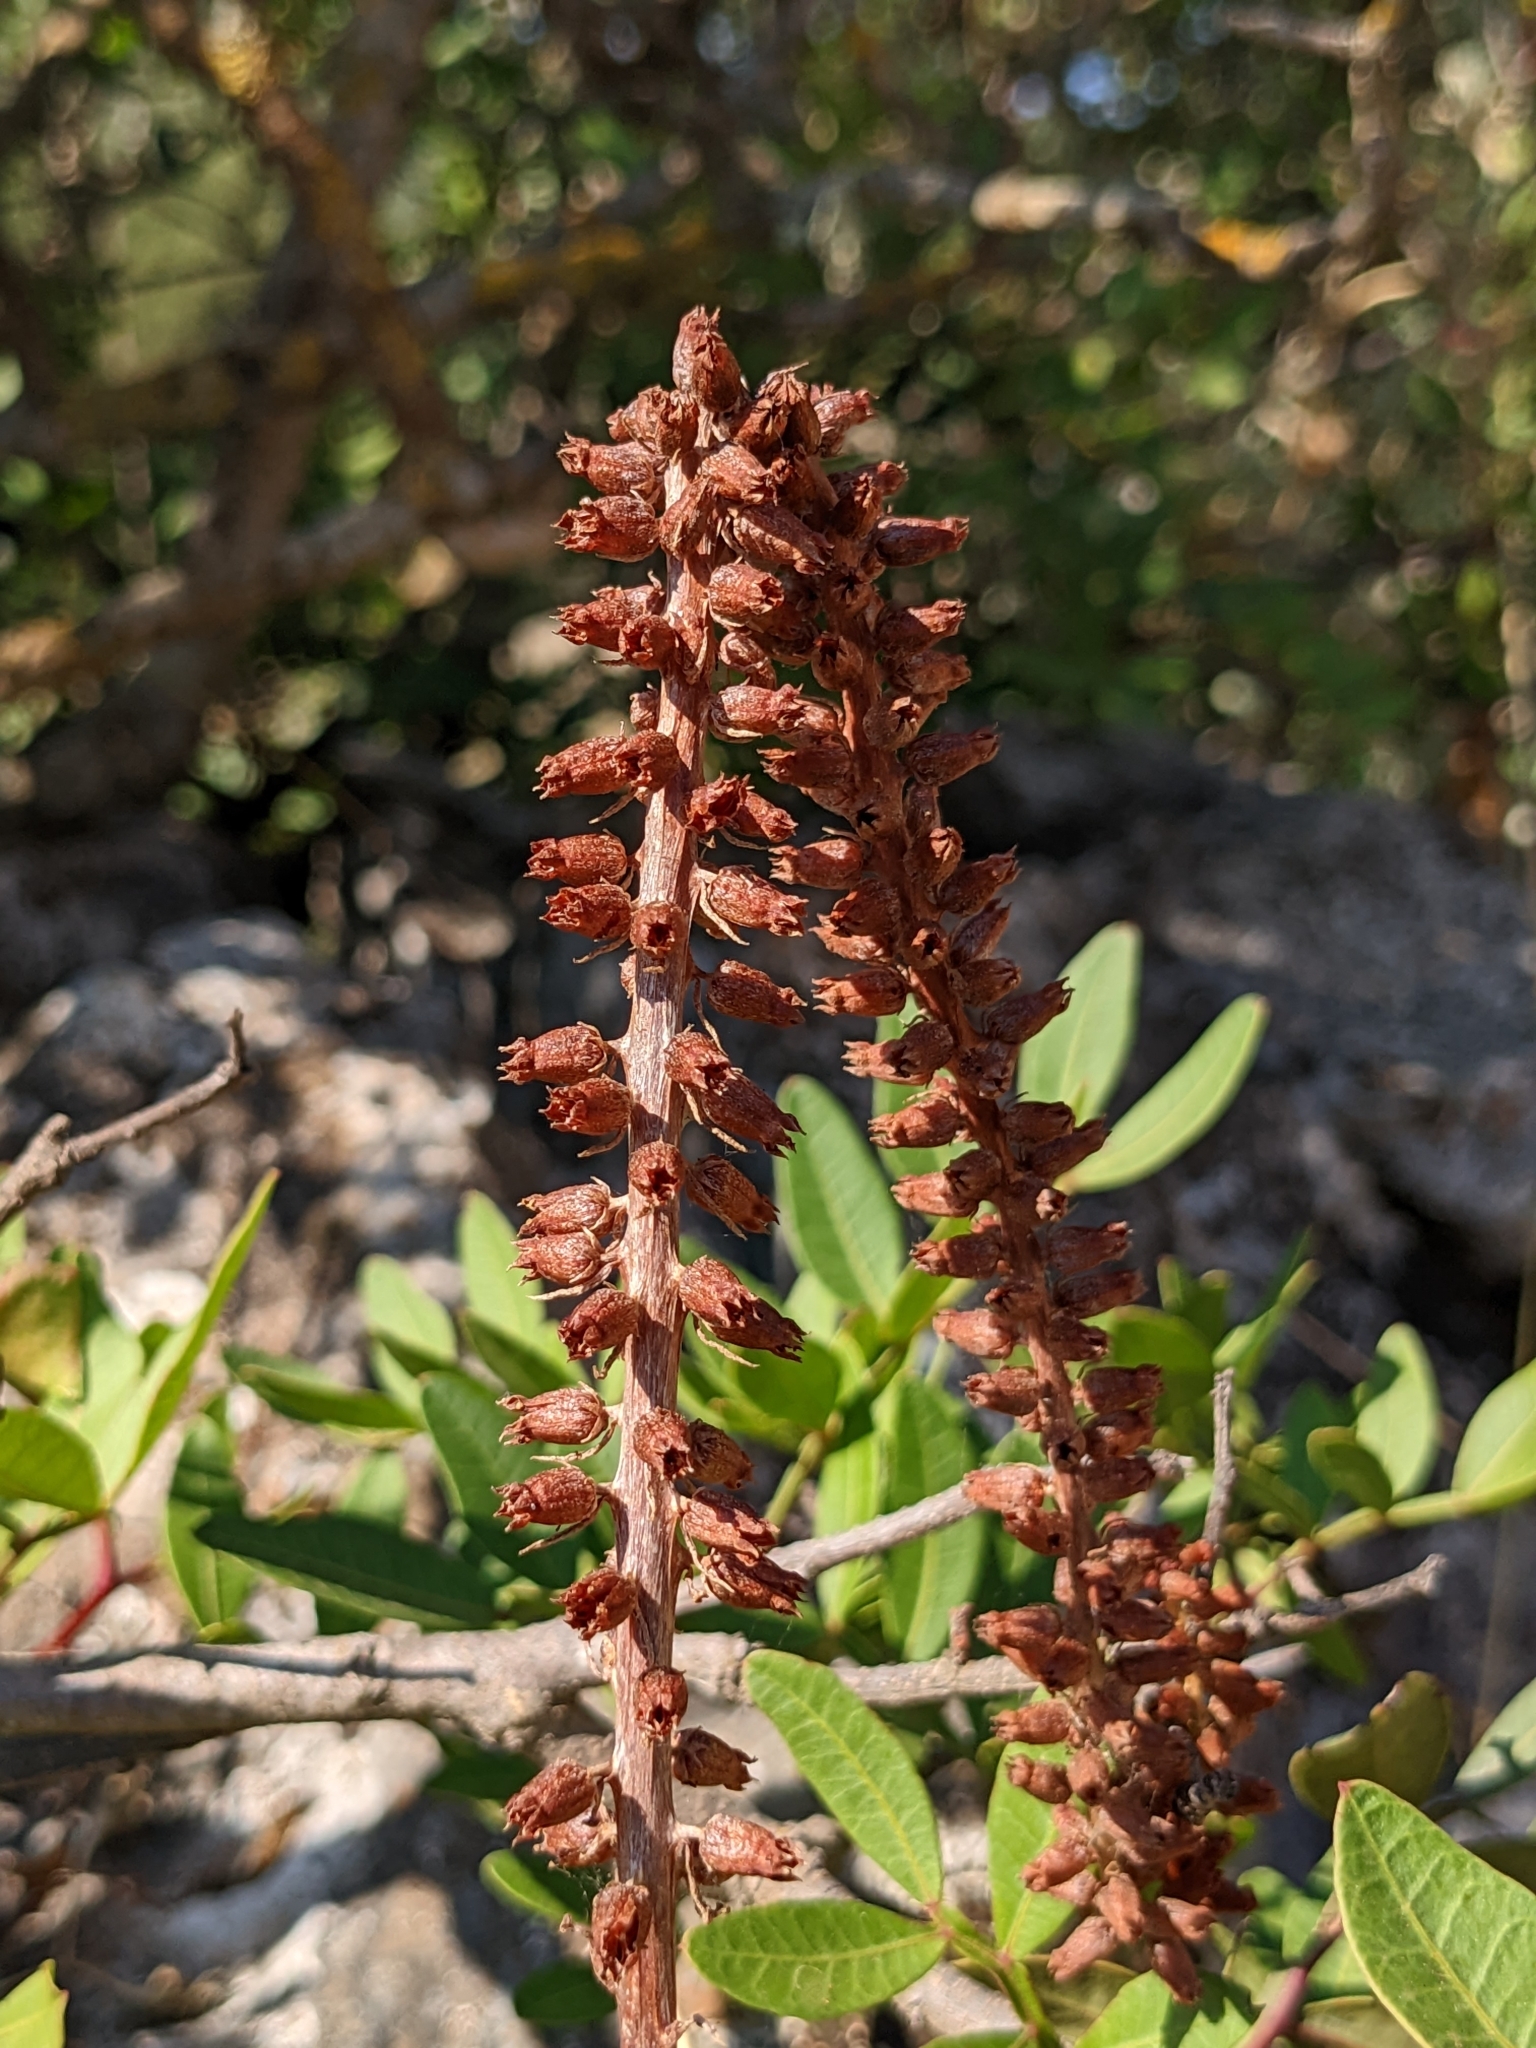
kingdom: Plantae
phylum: Tracheophyta
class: Magnoliopsida
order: Saxifragales
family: Crassulaceae
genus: Umbilicus
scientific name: Umbilicus horizontalis
